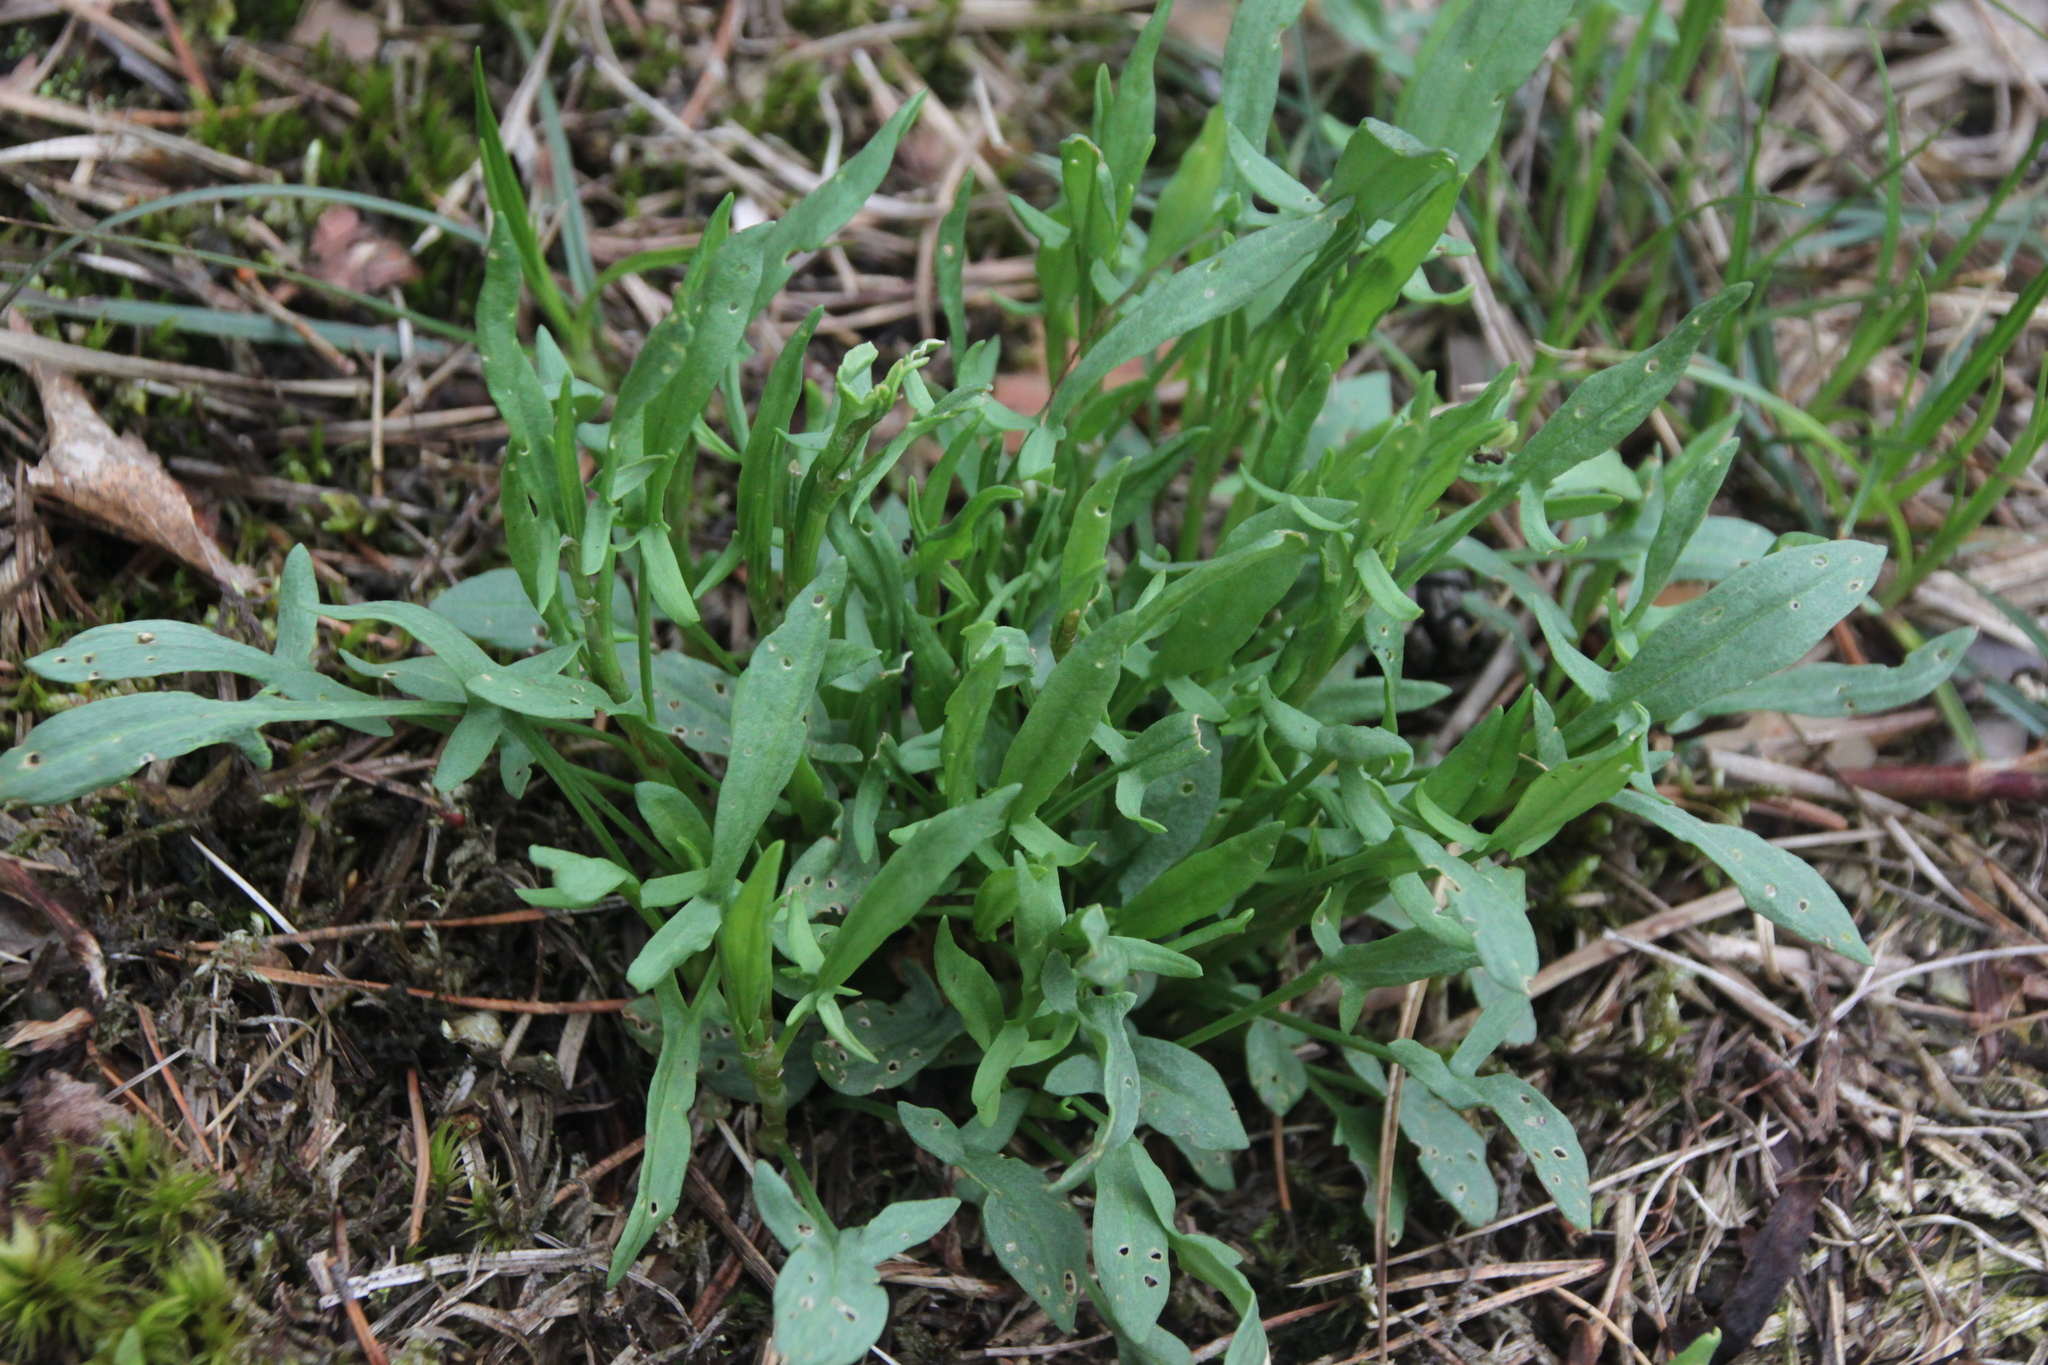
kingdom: Plantae
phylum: Tracheophyta
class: Magnoliopsida
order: Caryophyllales
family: Polygonaceae
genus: Rumex
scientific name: Rumex acetosella
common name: Common sheep sorrel
